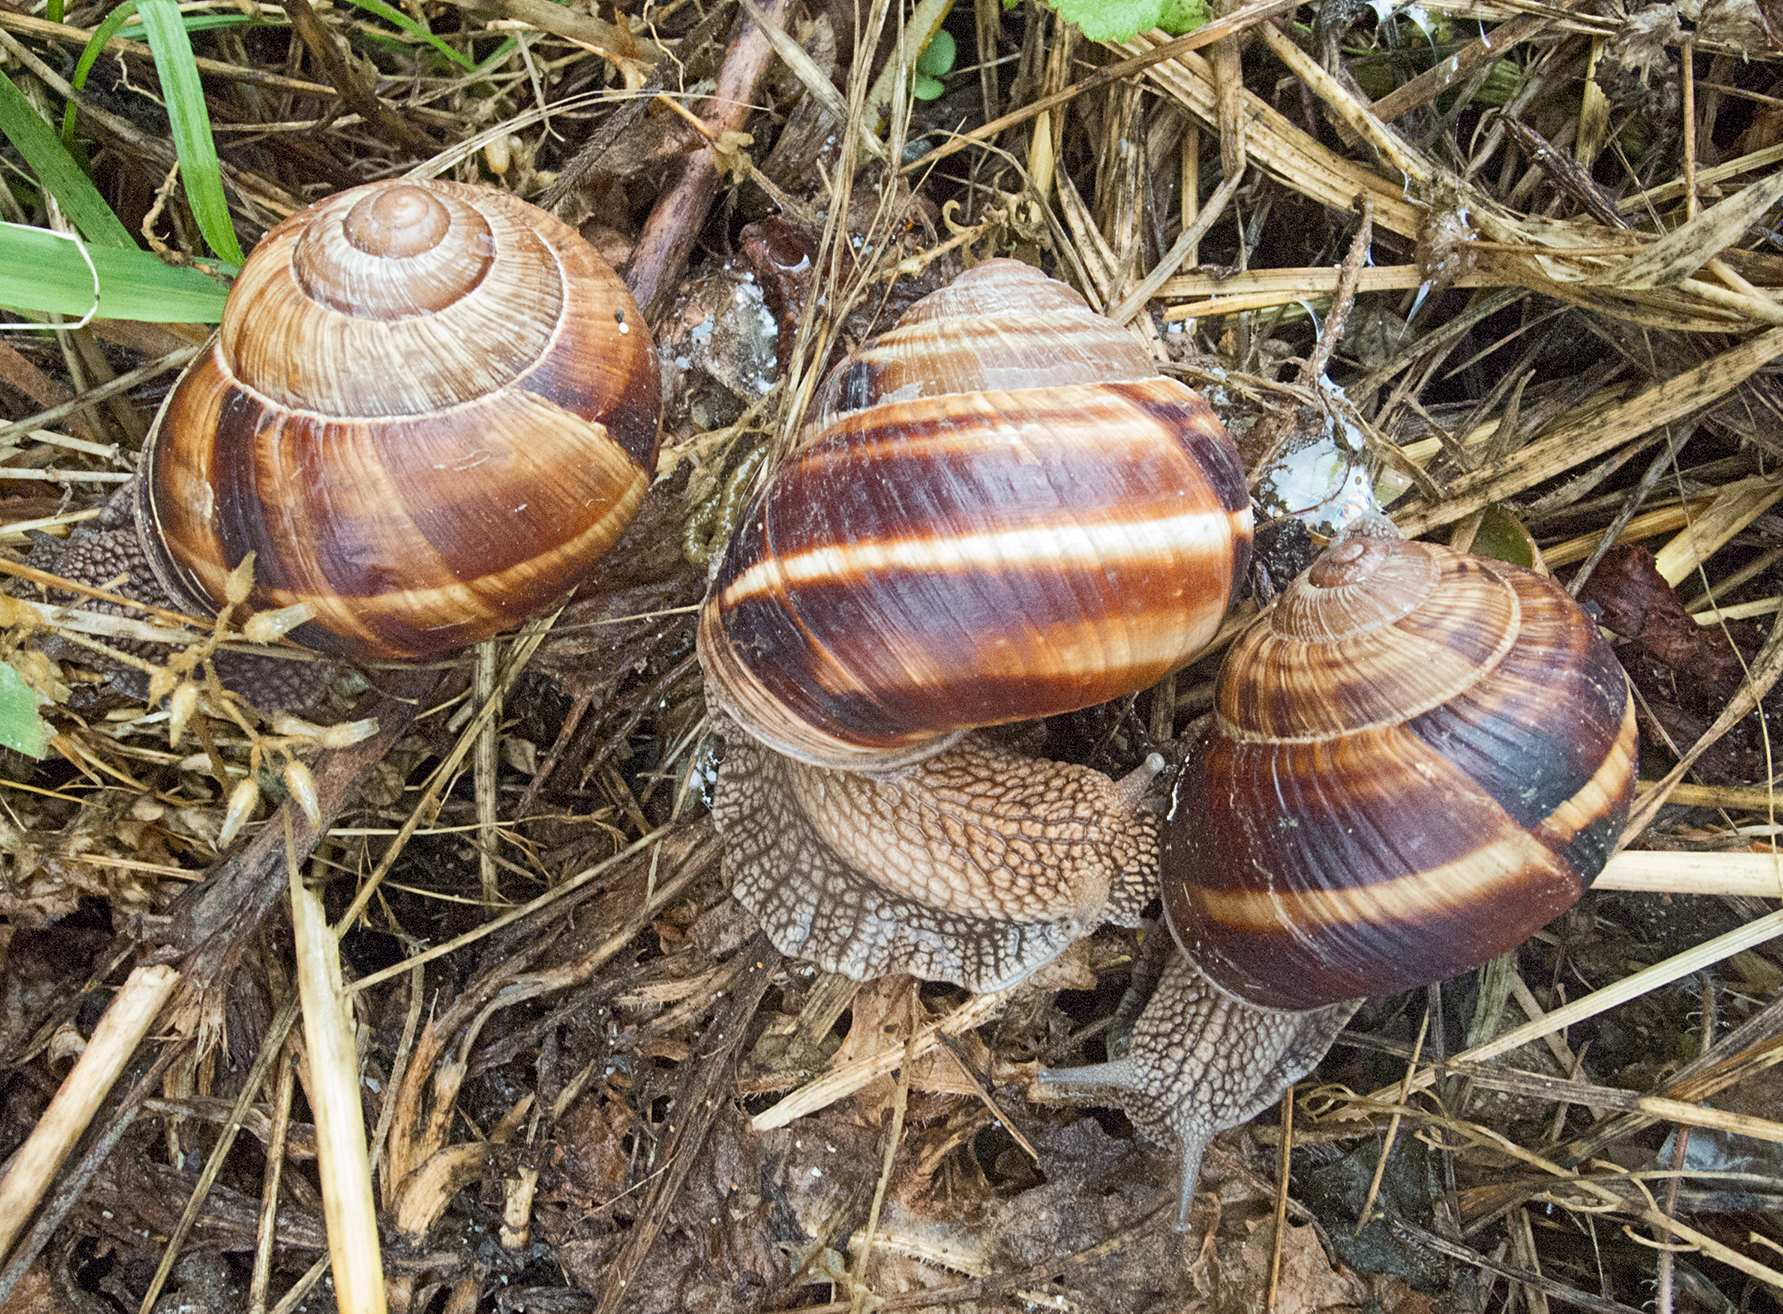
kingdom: Animalia
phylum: Mollusca
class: Gastropoda
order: Stylommatophora
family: Helicidae
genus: Helix
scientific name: Helix lucorum
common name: Turkish snail
